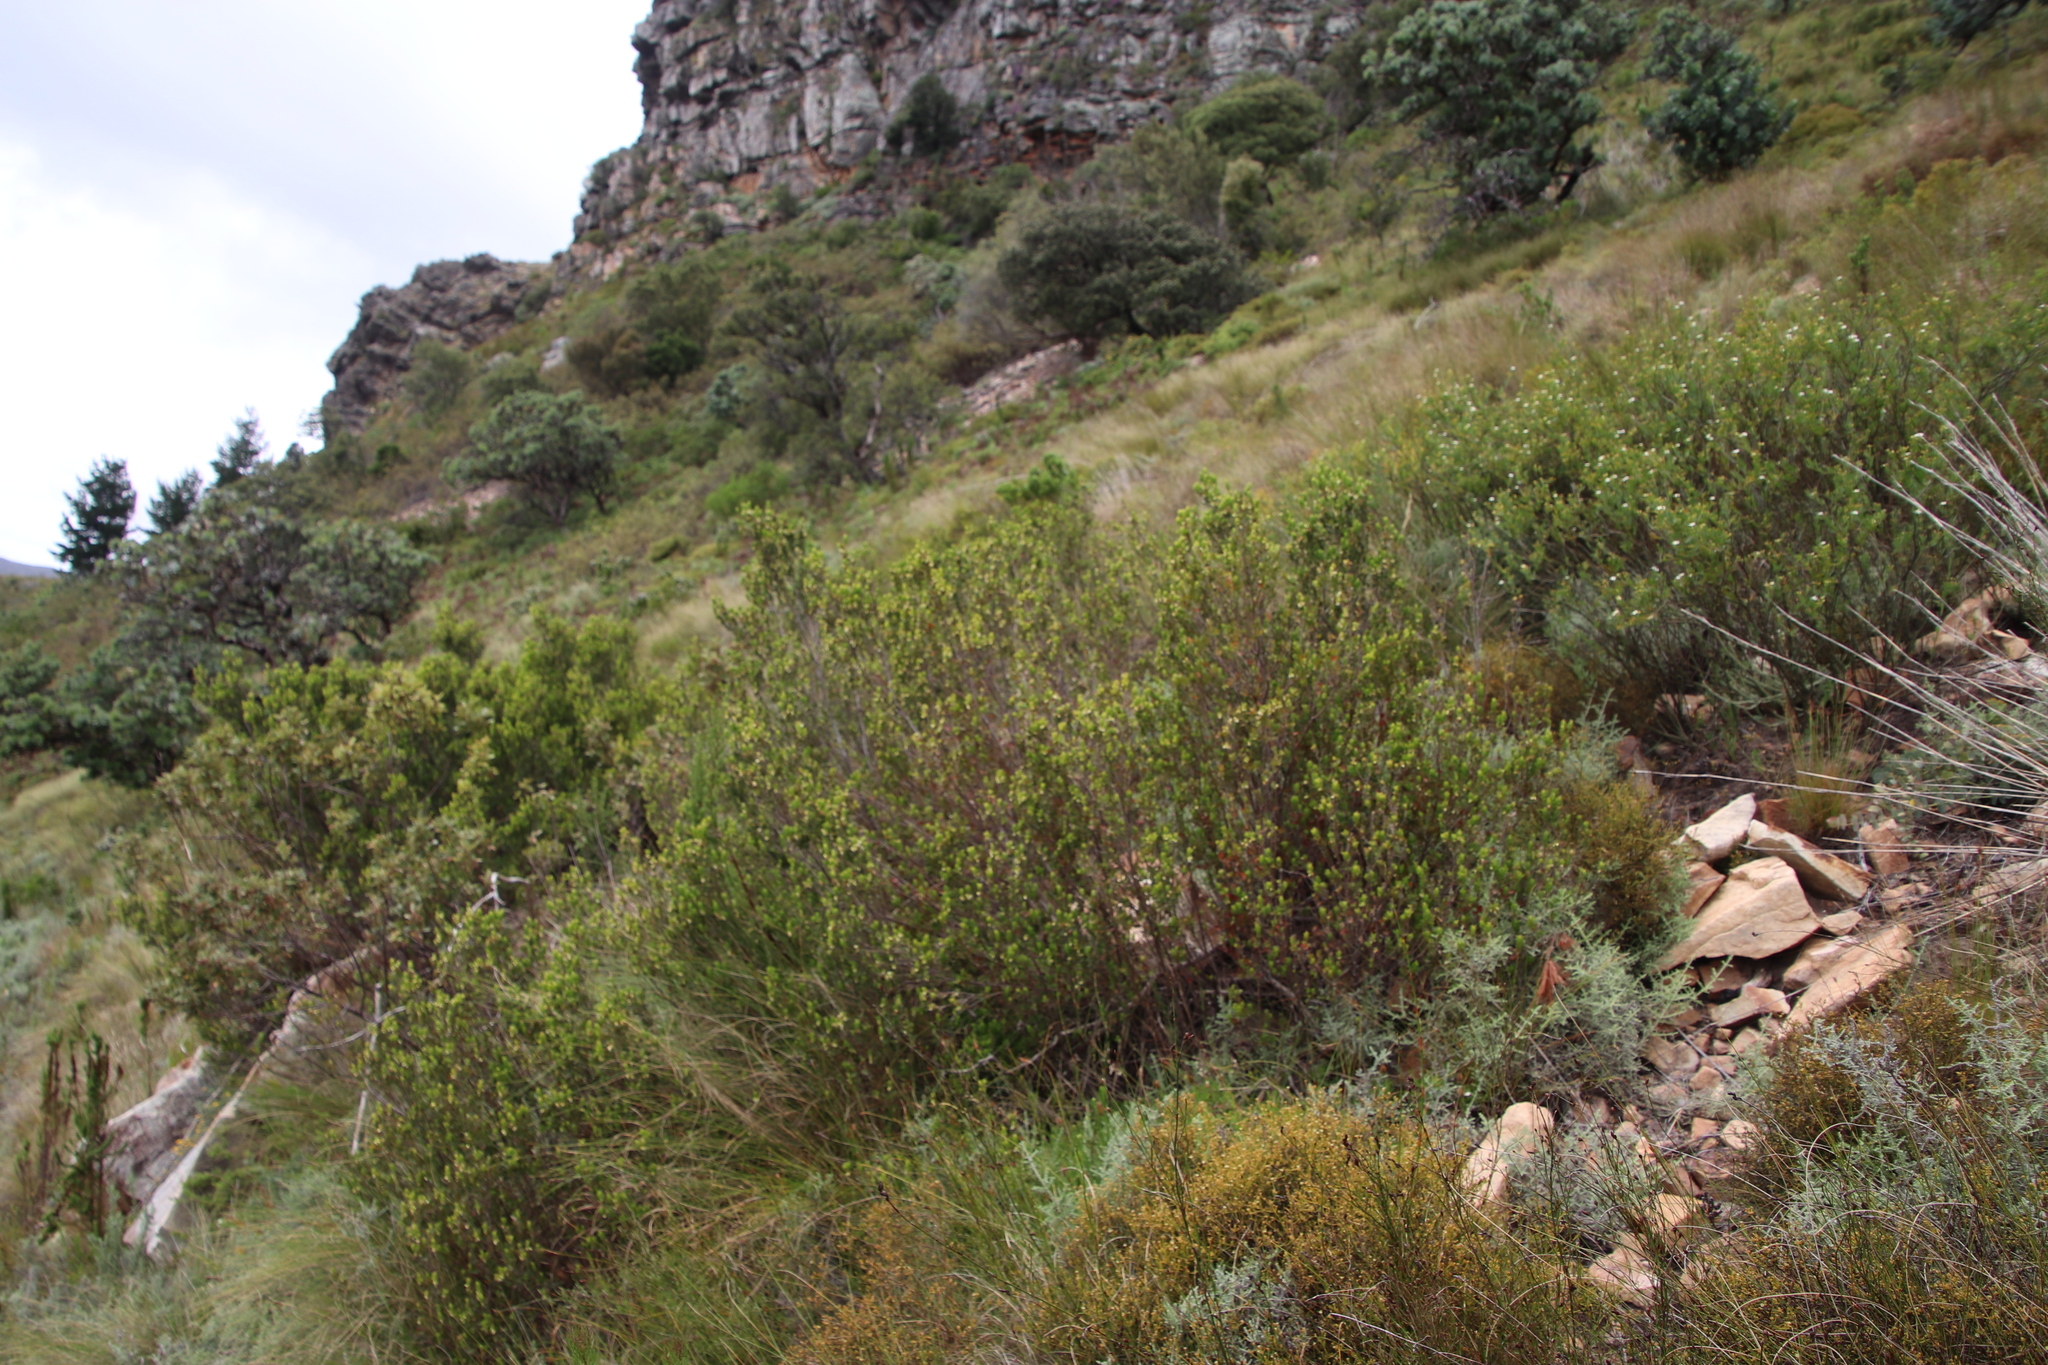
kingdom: Plantae
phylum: Tracheophyta
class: Magnoliopsida
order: Ericales
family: Ebenaceae
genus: Diospyros
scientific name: Diospyros glabra
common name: Fynbos star apple
